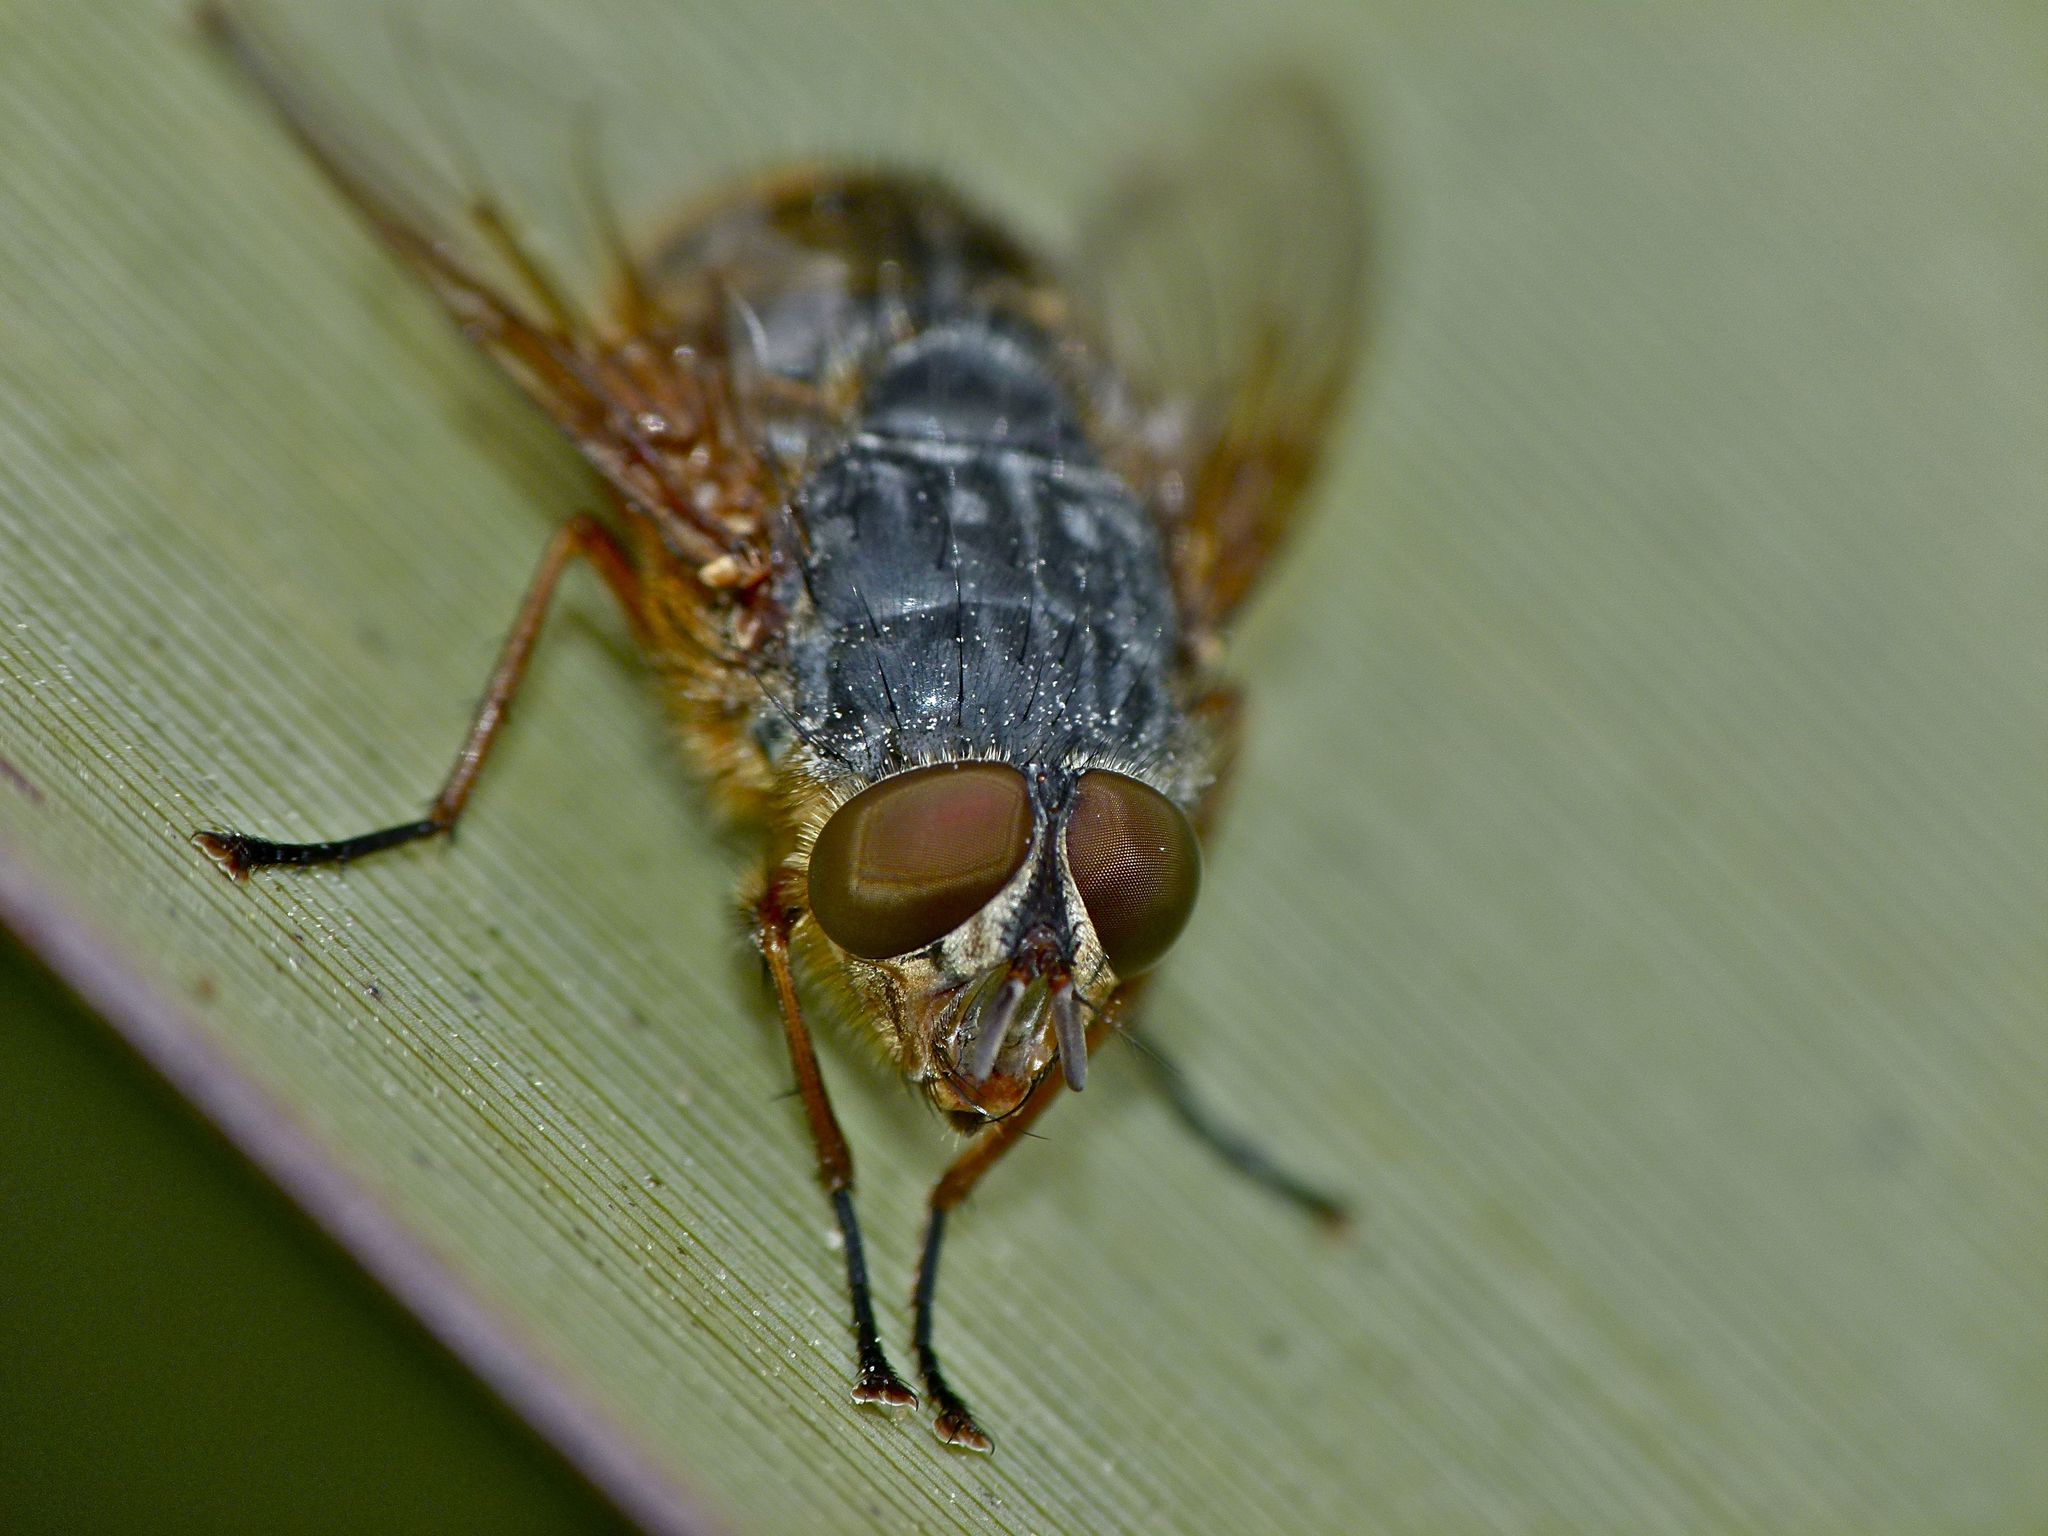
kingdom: Animalia
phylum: Arthropoda
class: Insecta
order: Diptera
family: Calliphoridae
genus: Calliphora
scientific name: Calliphora hilli
